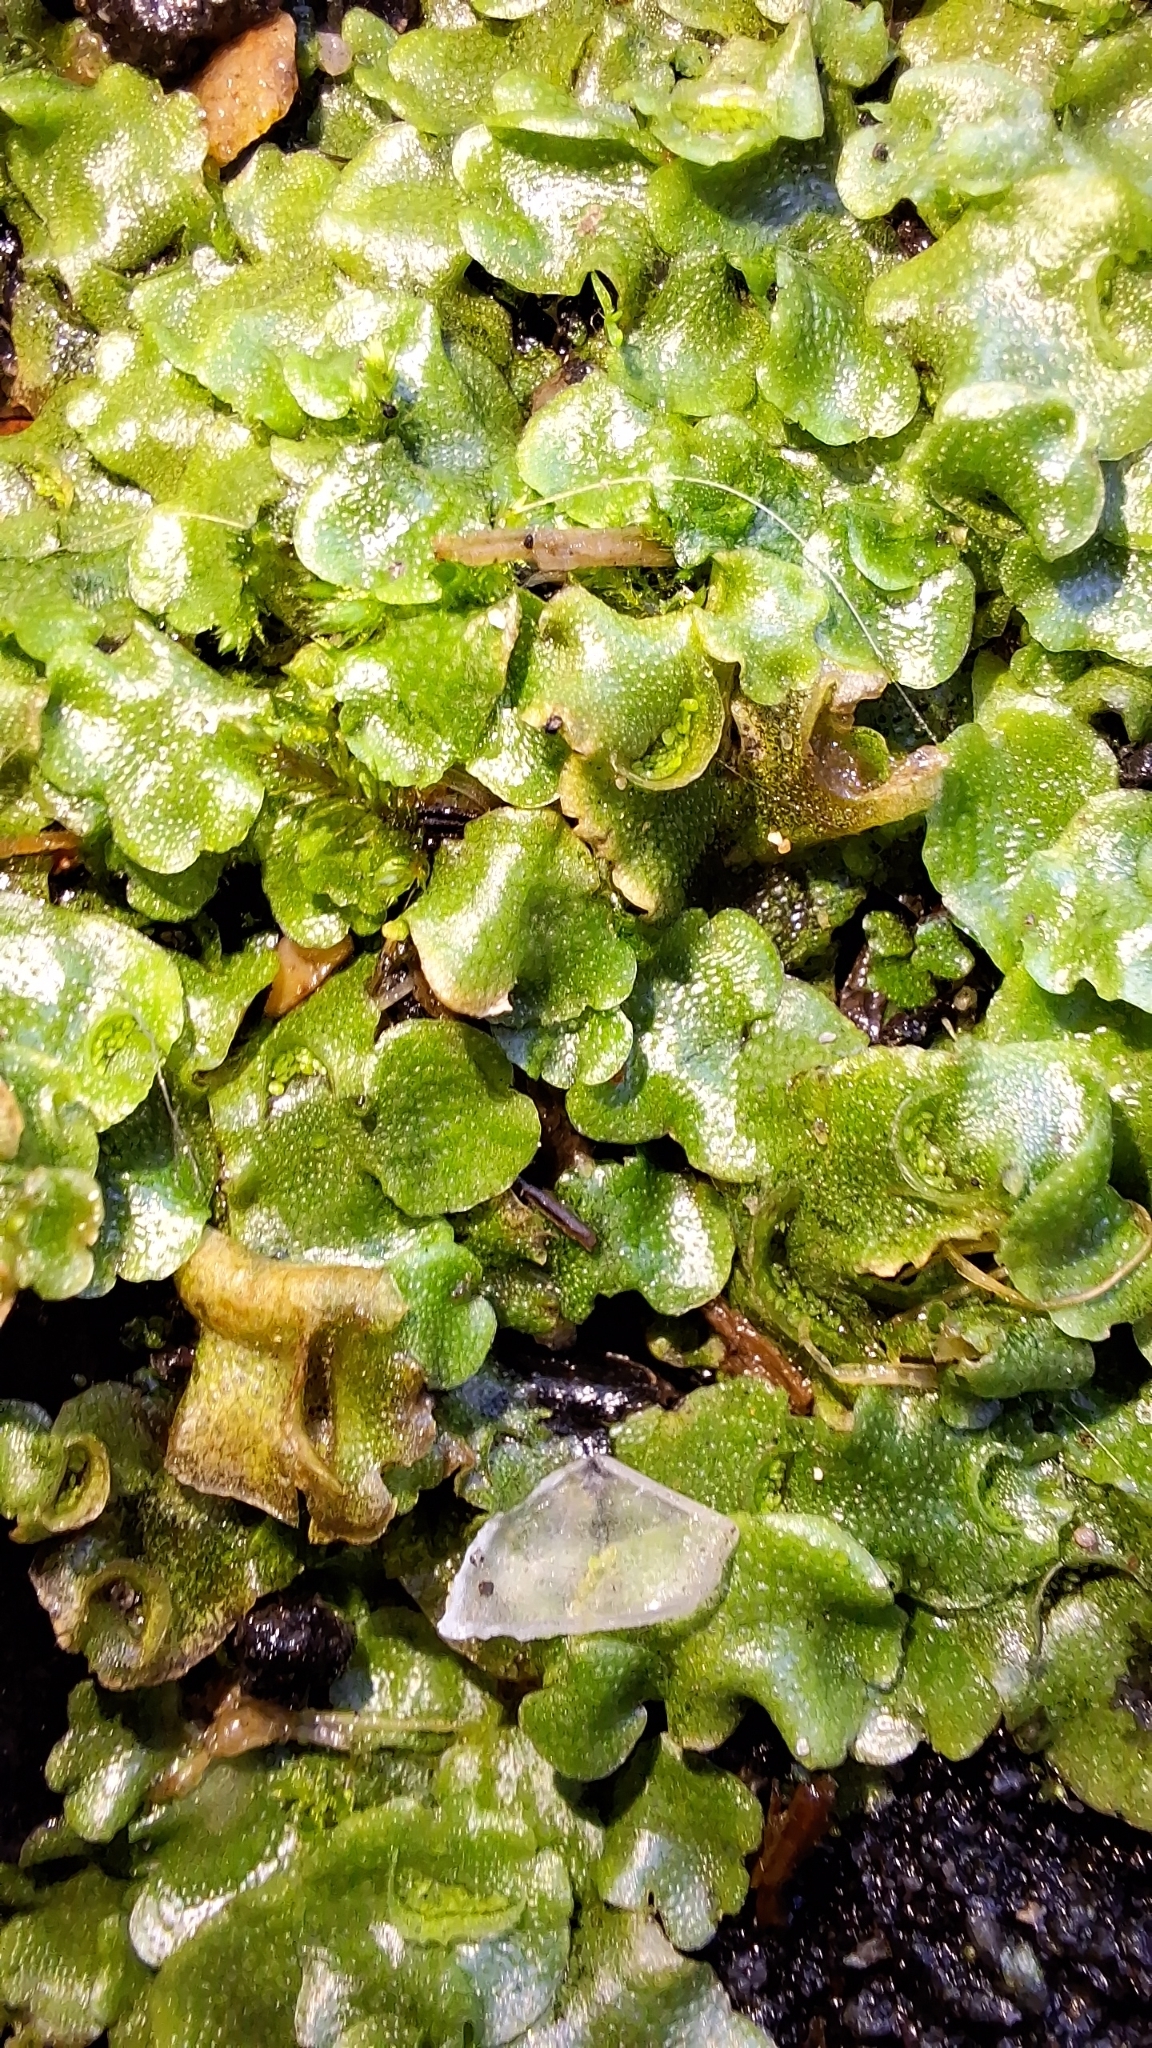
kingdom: Plantae
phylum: Marchantiophyta
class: Marchantiopsida
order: Lunulariales
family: Lunulariaceae
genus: Lunularia
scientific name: Lunularia cruciata
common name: Crescent-cup liverwort
